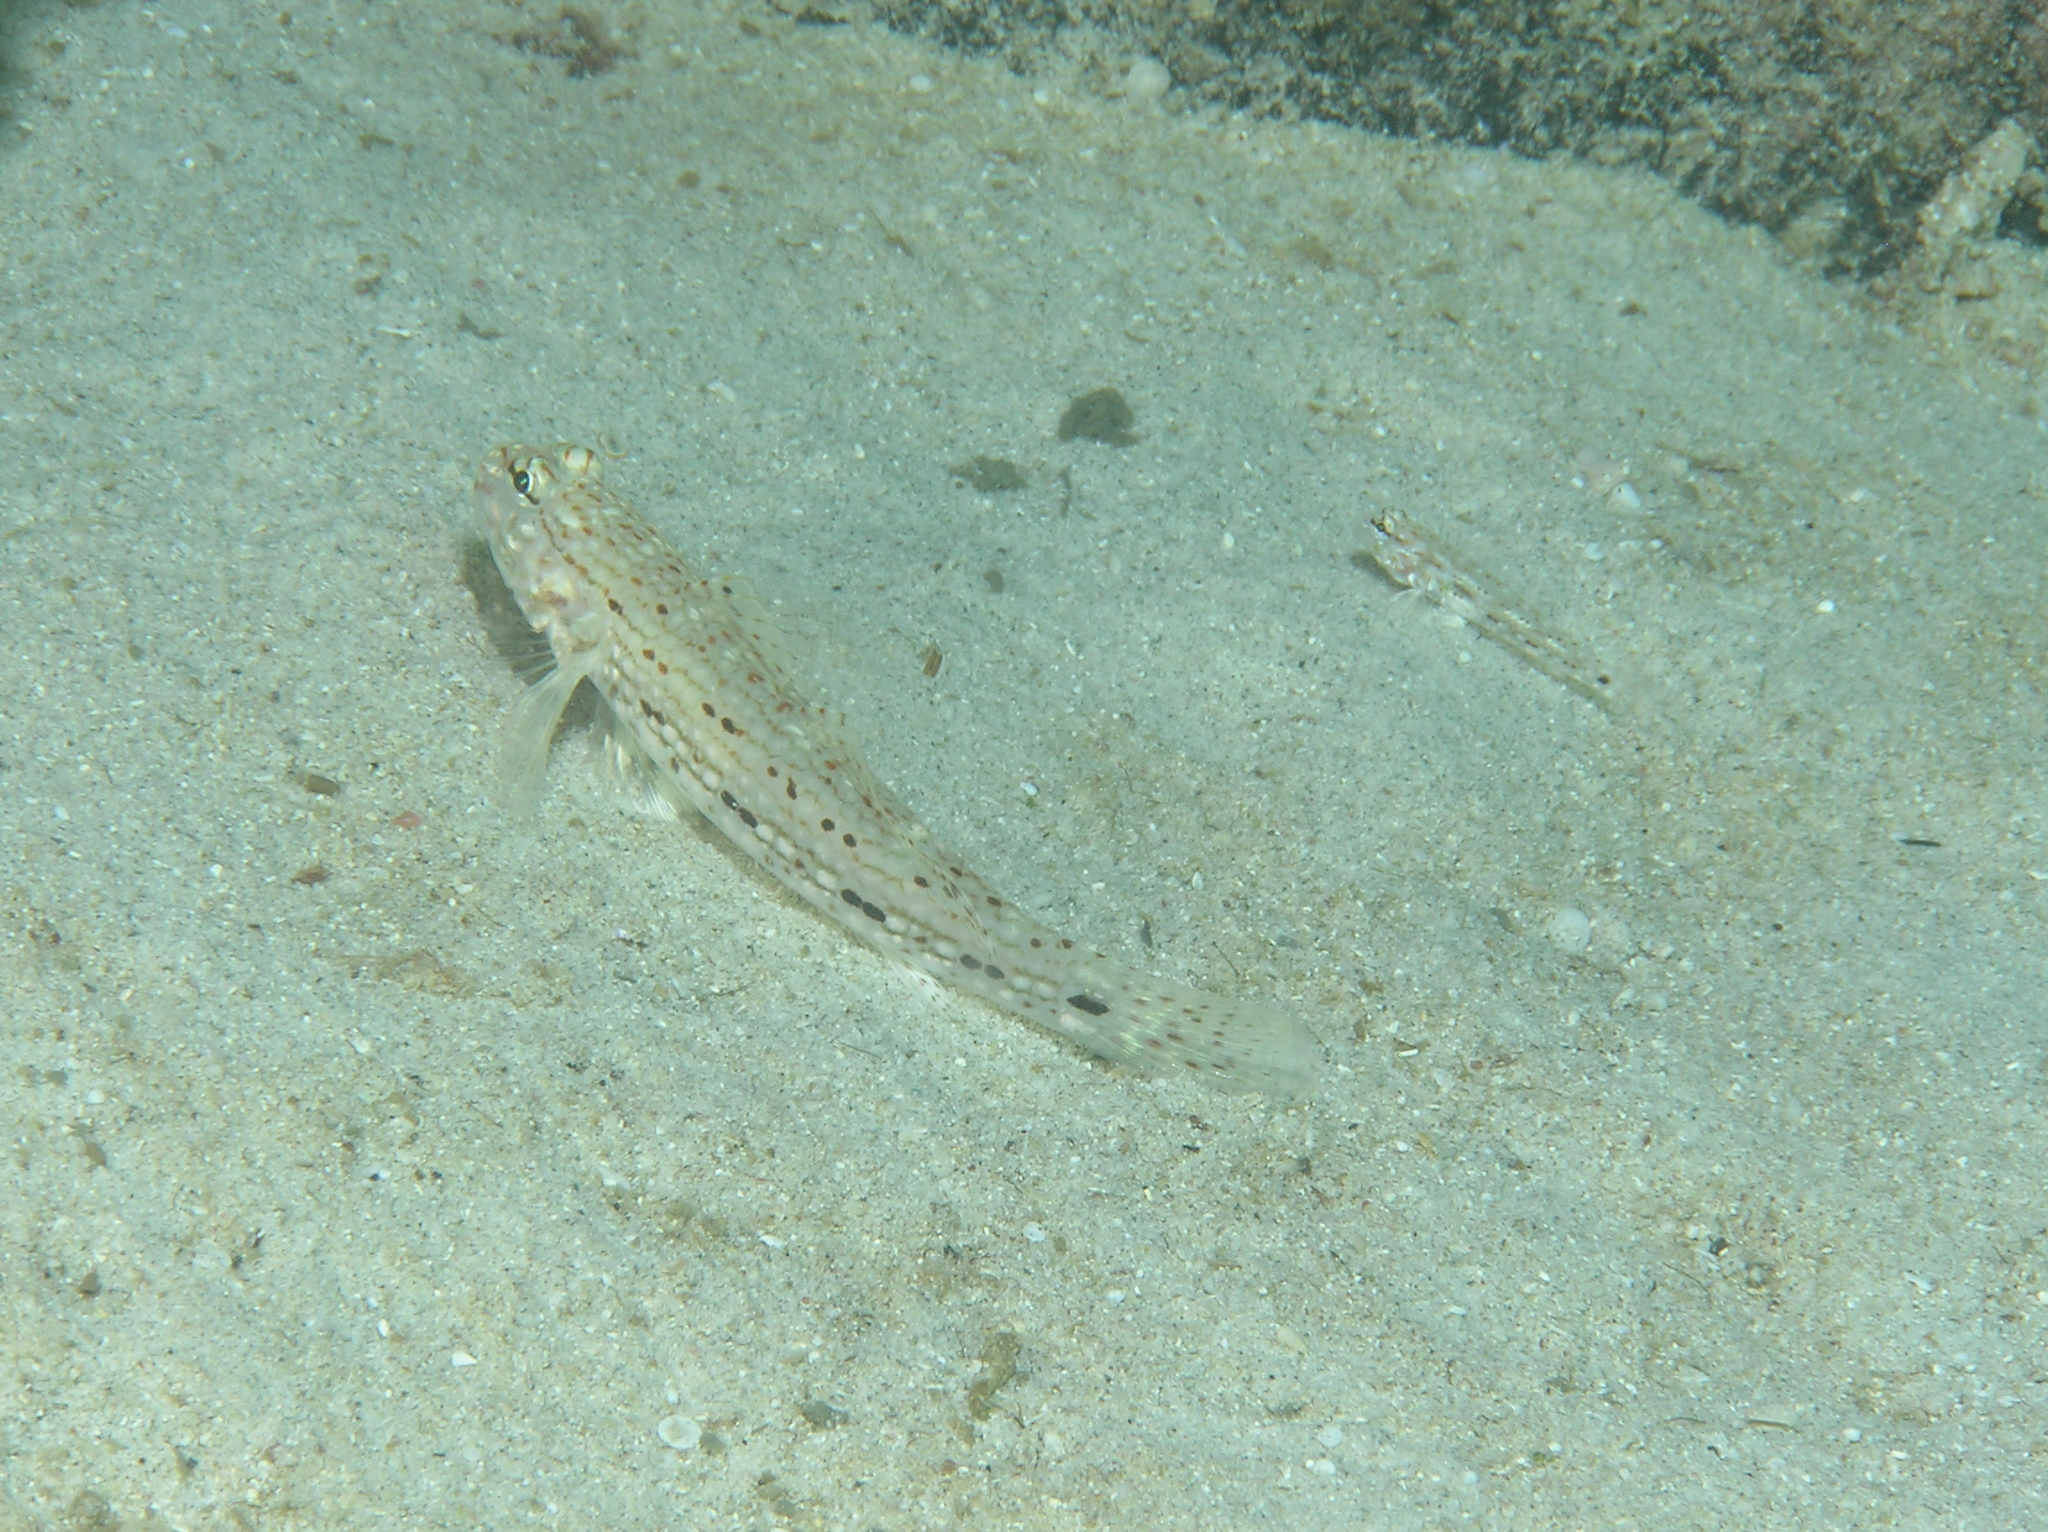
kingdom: Animalia
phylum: Chordata
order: Perciformes
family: Gobiidae
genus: Istigobius
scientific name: Istigobius decoratus
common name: Decorated goby
